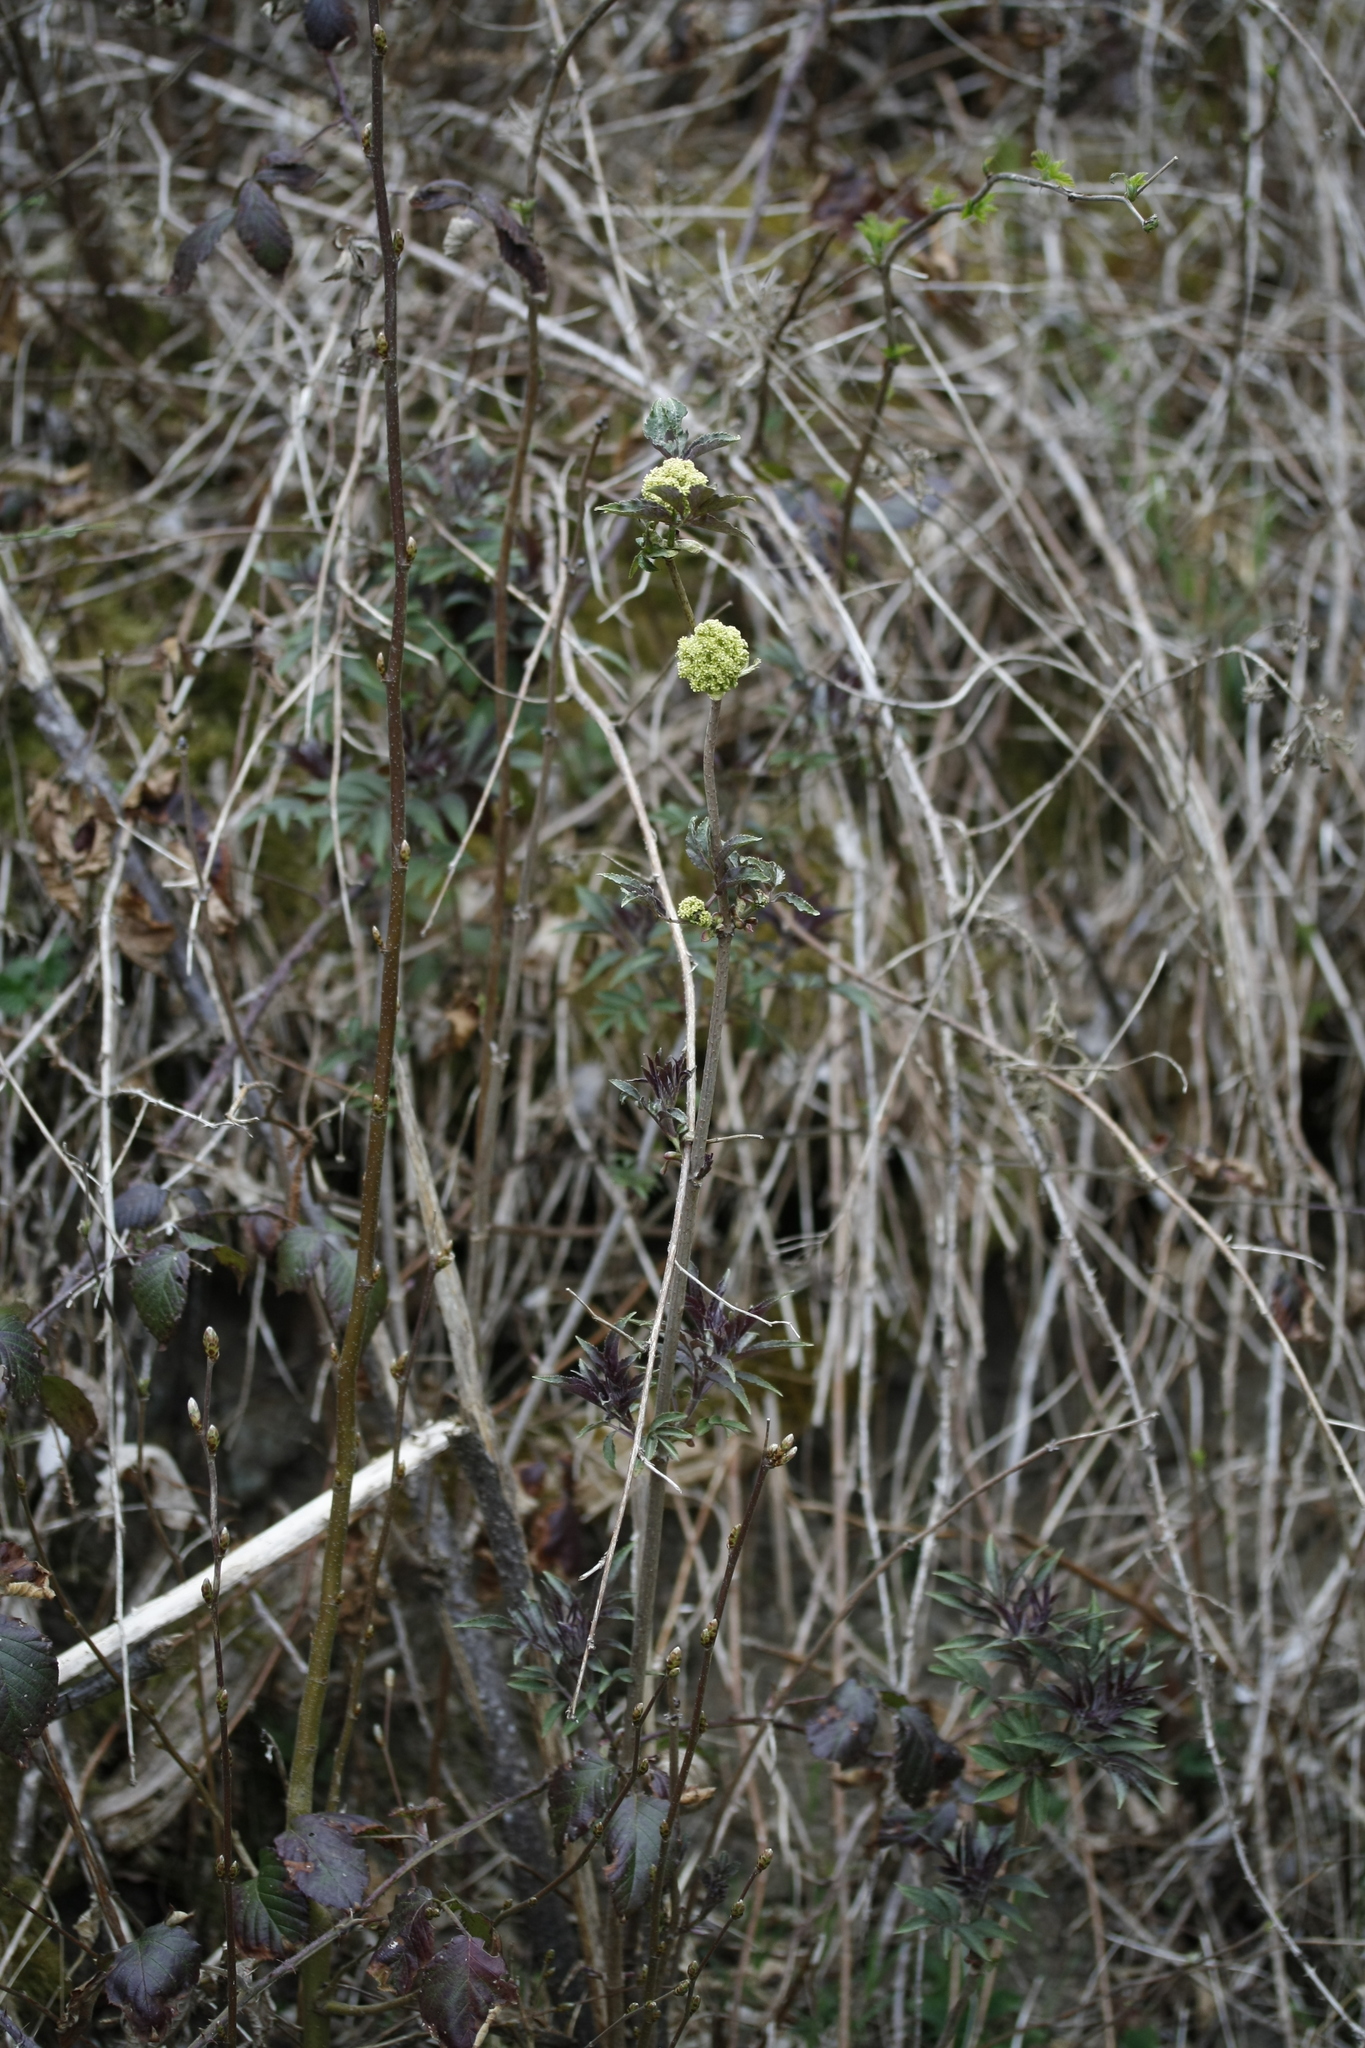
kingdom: Plantae
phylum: Tracheophyta
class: Magnoliopsida
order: Dipsacales
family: Viburnaceae
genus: Sambucus
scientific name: Sambucus racemosa
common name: Red-berried elder
